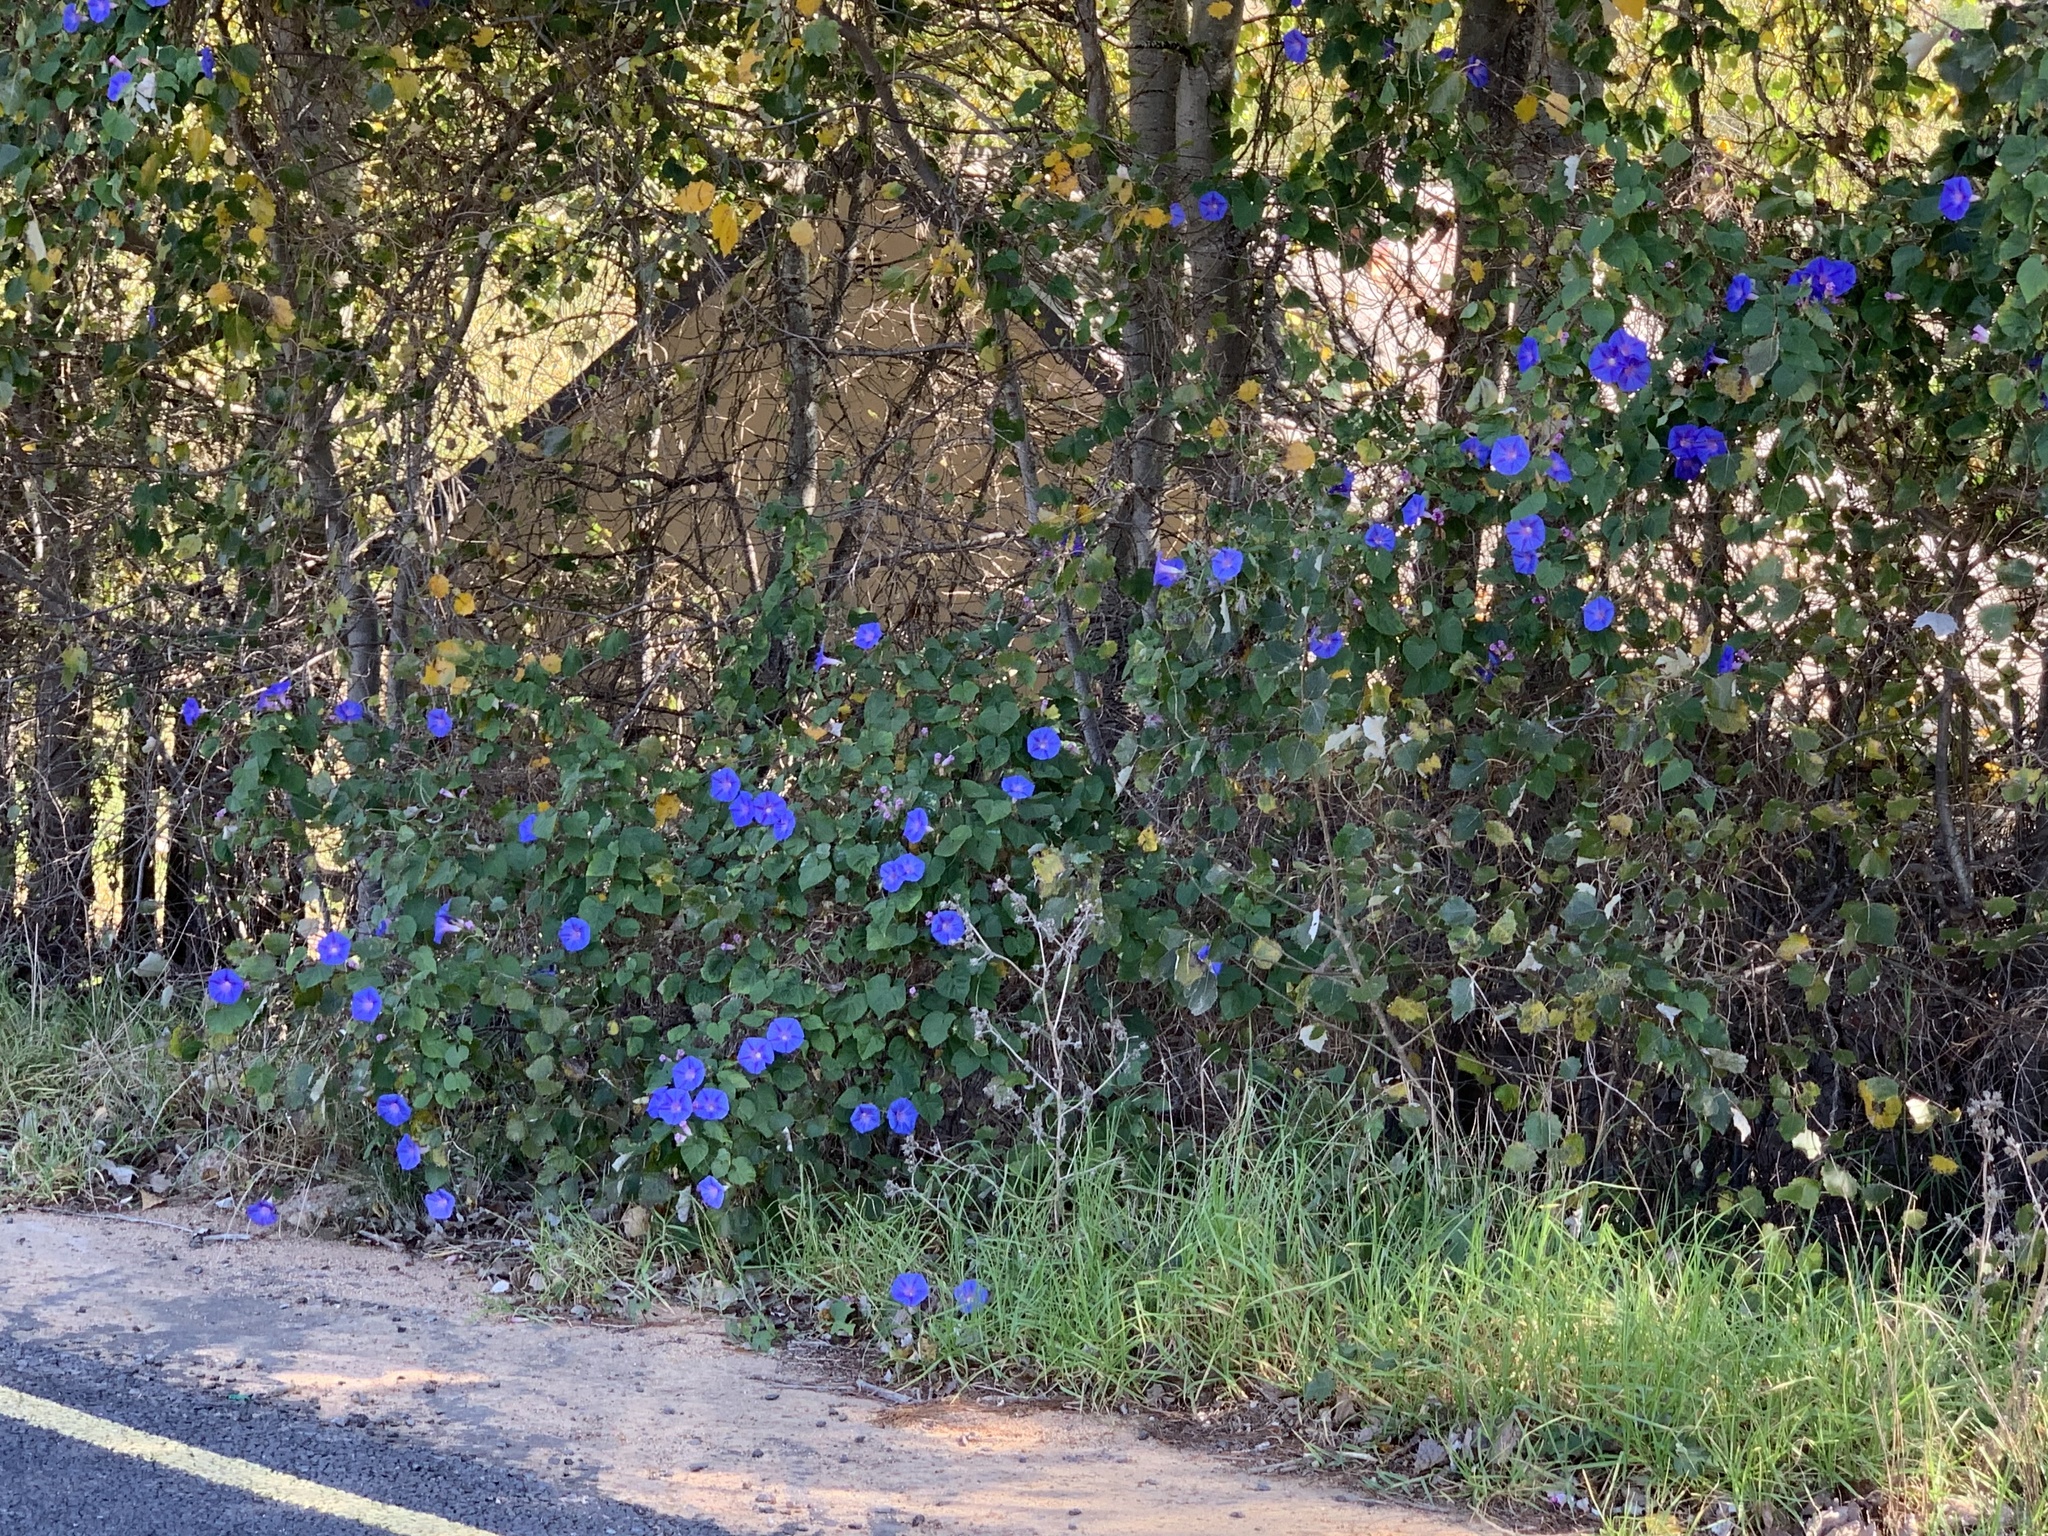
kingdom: Plantae
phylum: Tracheophyta
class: Magnoliopsida
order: Solanales
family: Convolvulaceae
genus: Ipomoea
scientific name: Ipomoea indica
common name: Blue dawnflower
